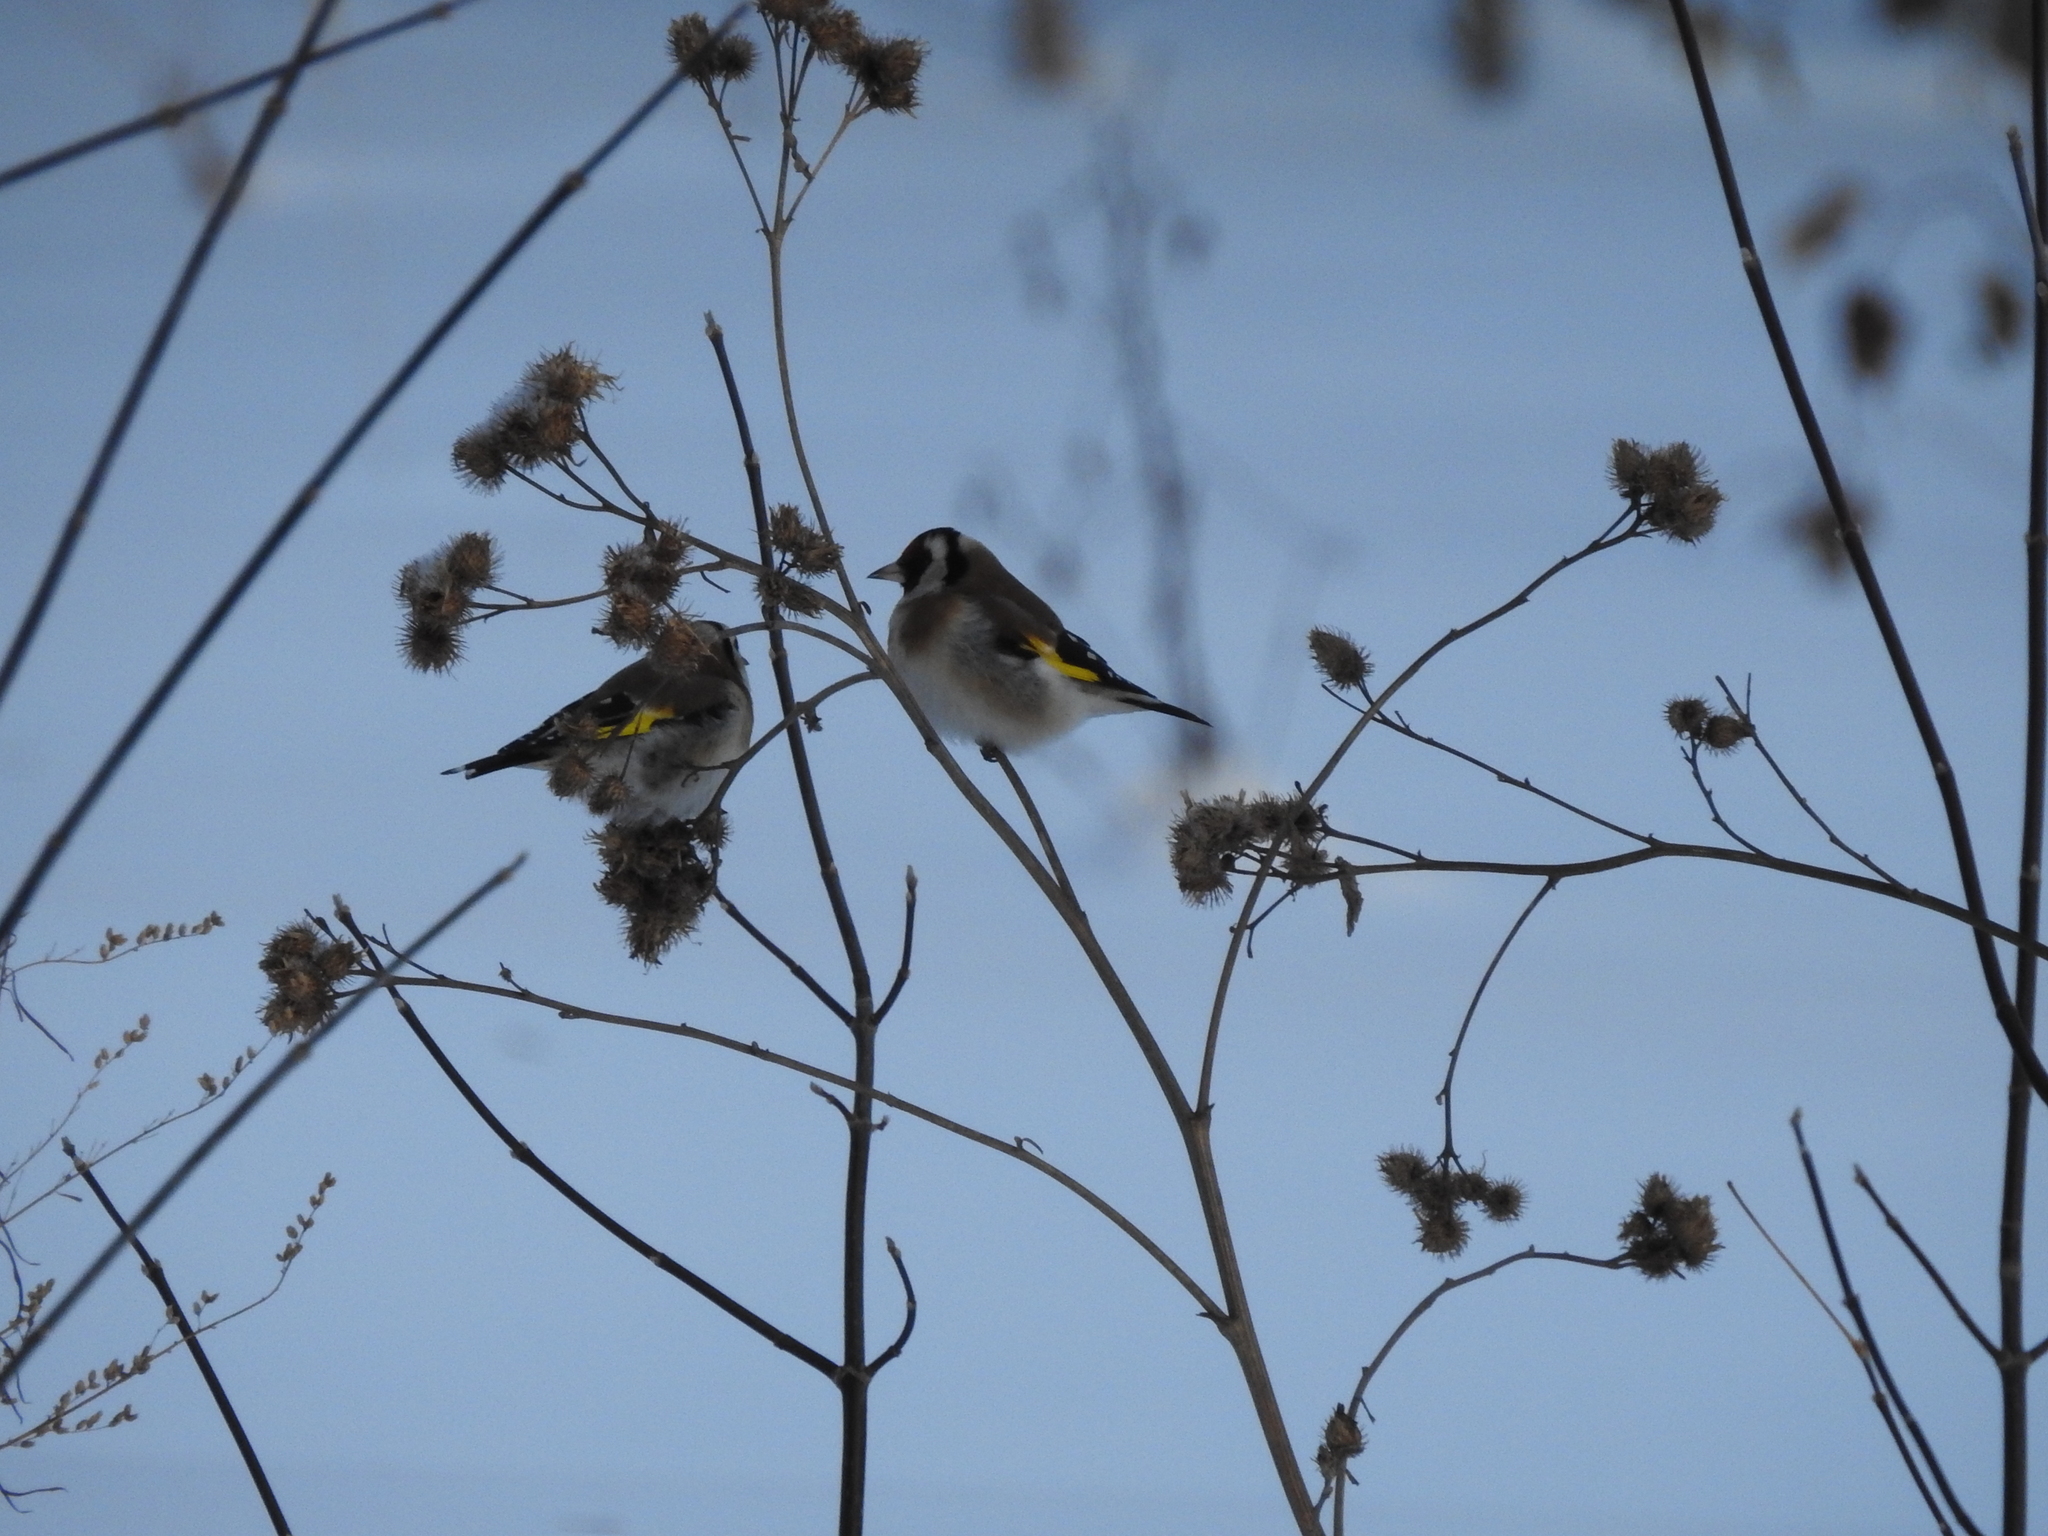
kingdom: Animalia
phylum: Chordata
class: Aves
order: Passeriformes
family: Fringillidae
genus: Carduelis
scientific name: Carduelis carduelis
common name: European goldfinch
